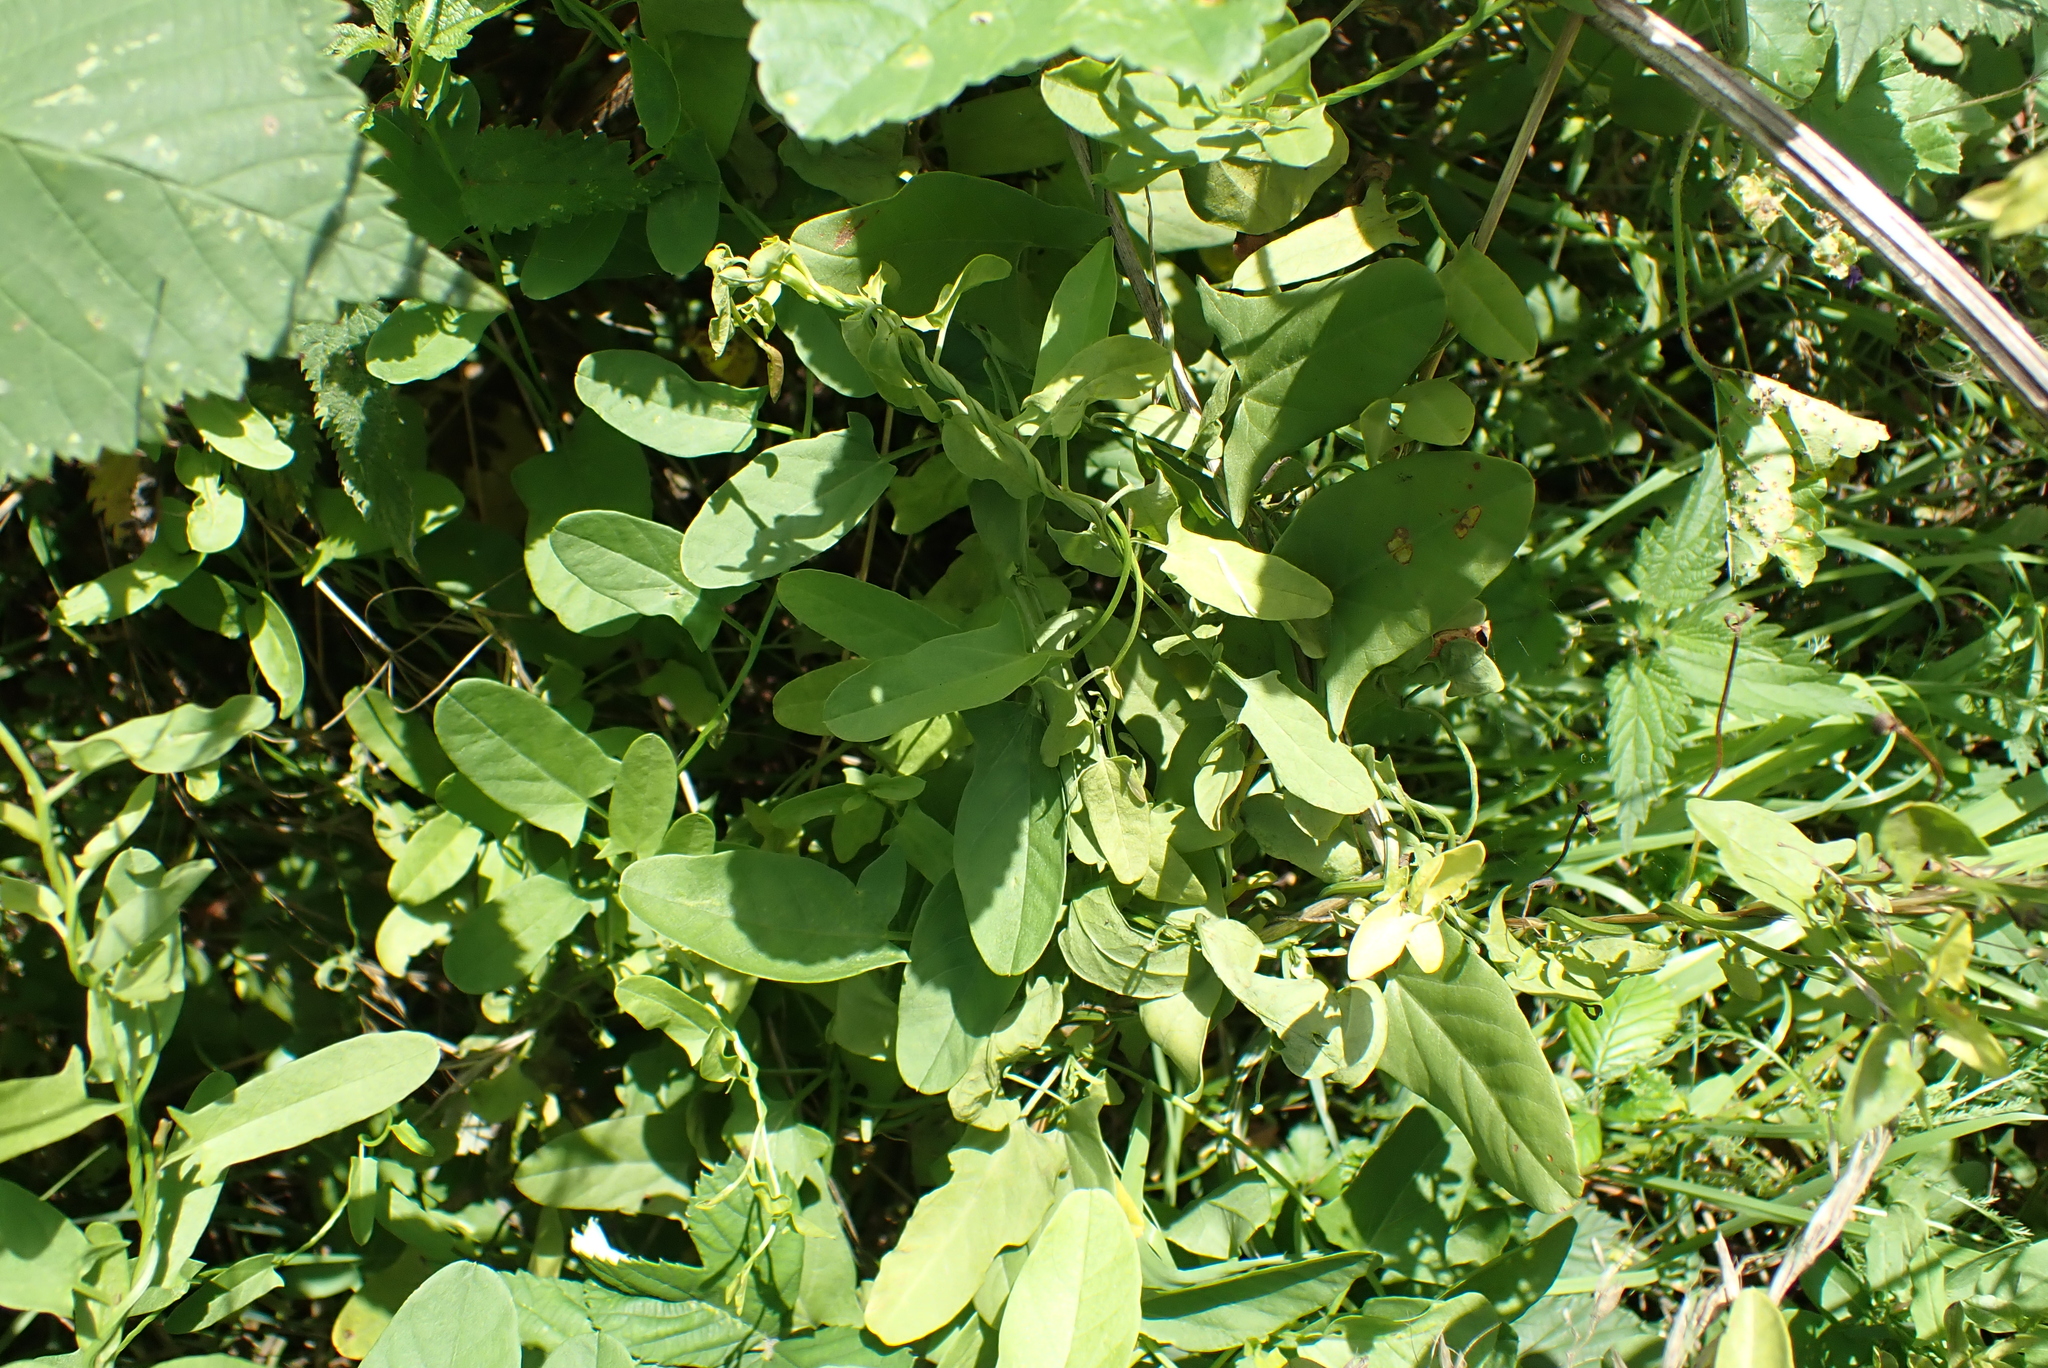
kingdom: Plantae
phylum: Tracheophyta
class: Magnoliopsida
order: Solanales
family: Convolvulaceae
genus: Convolvulus
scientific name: Convolvulus arvensis
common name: Field bindweed
